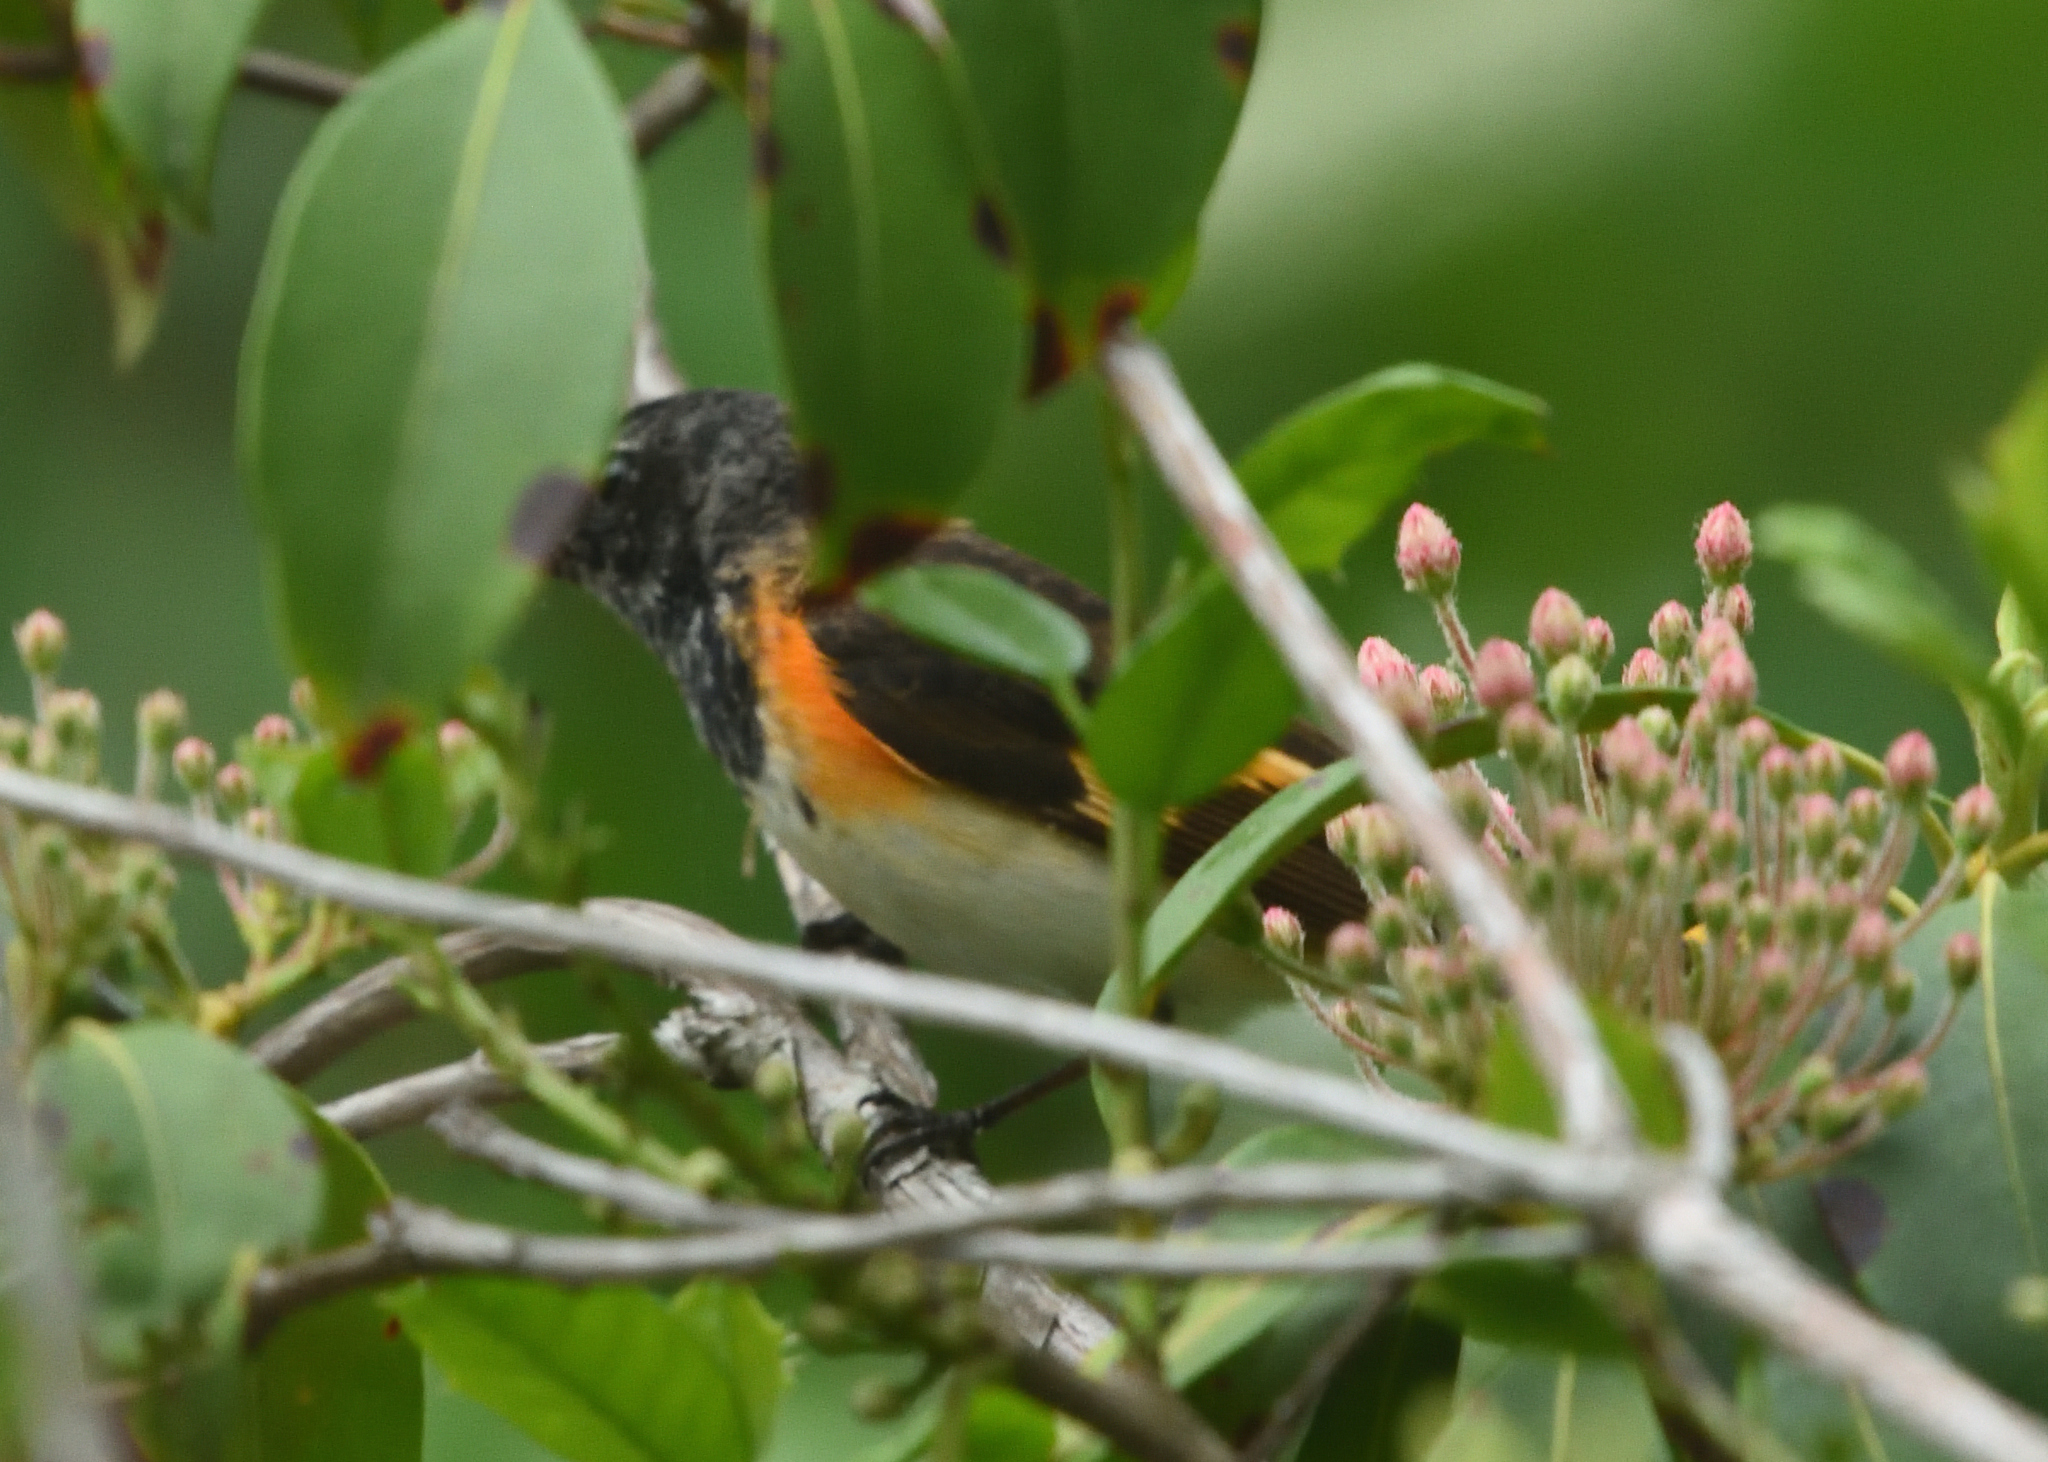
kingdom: Animalia
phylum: Chordata
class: Aves
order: Passeriformes
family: Parulidae
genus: Setophaga
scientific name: Setophaga ruticilla
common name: American redstart
